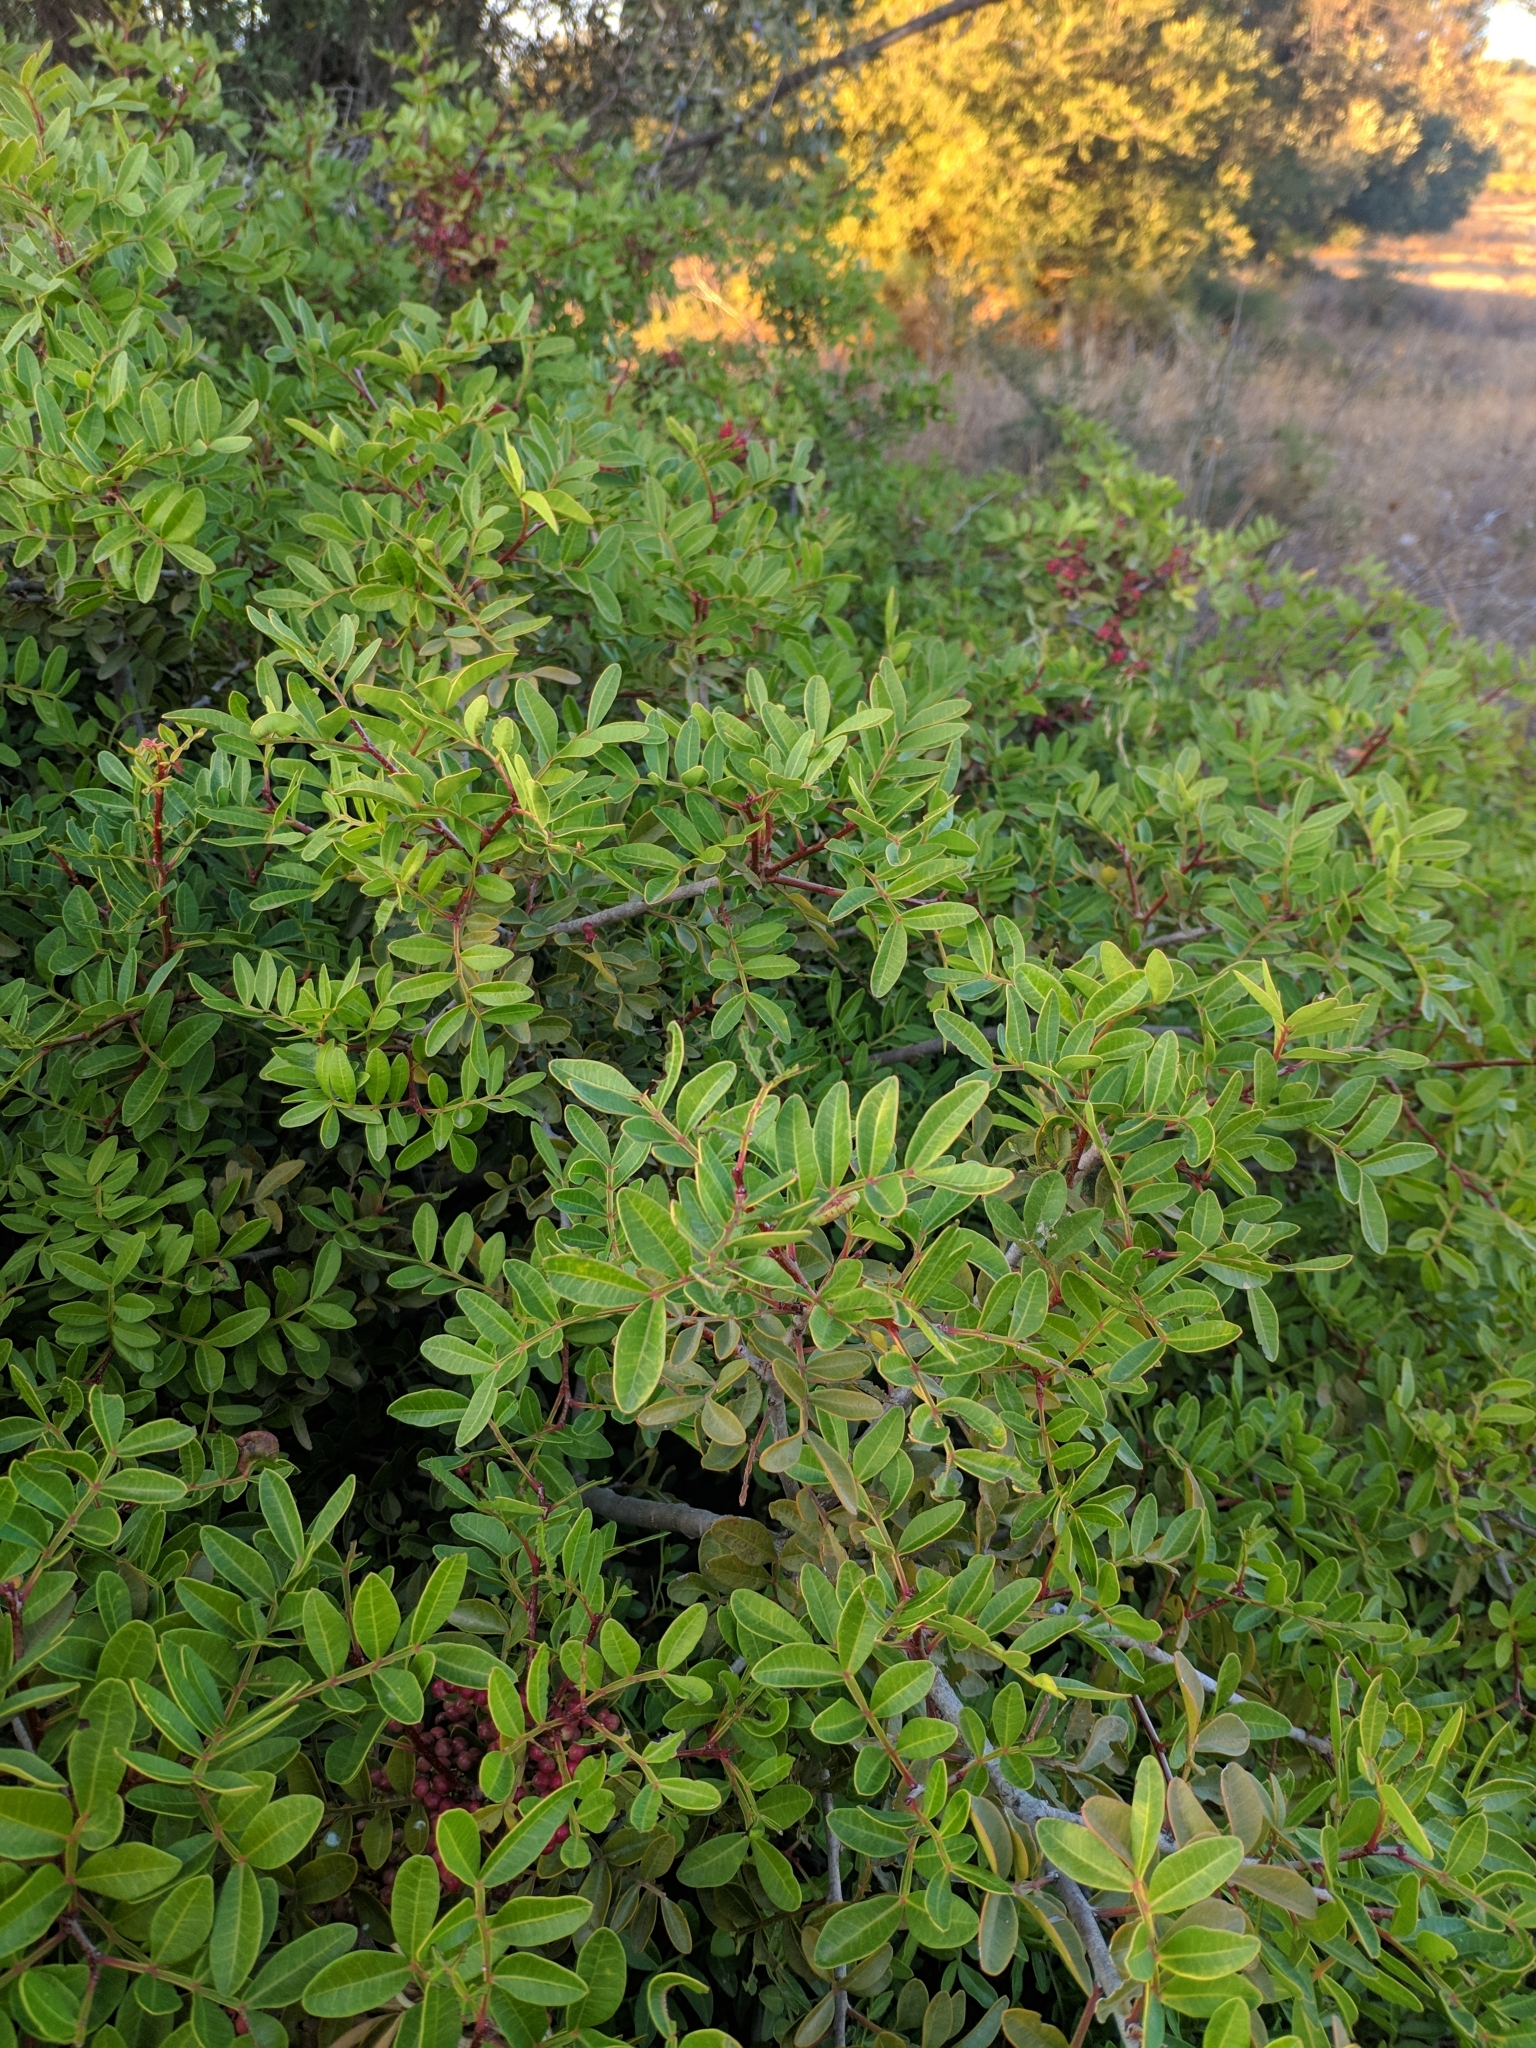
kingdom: Plantae
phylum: Tracheophyta
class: Magnoliopsida
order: Sapindales
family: Anacardiaceae
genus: Pistacia
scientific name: Pistacia lentiscus
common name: Lentisk
